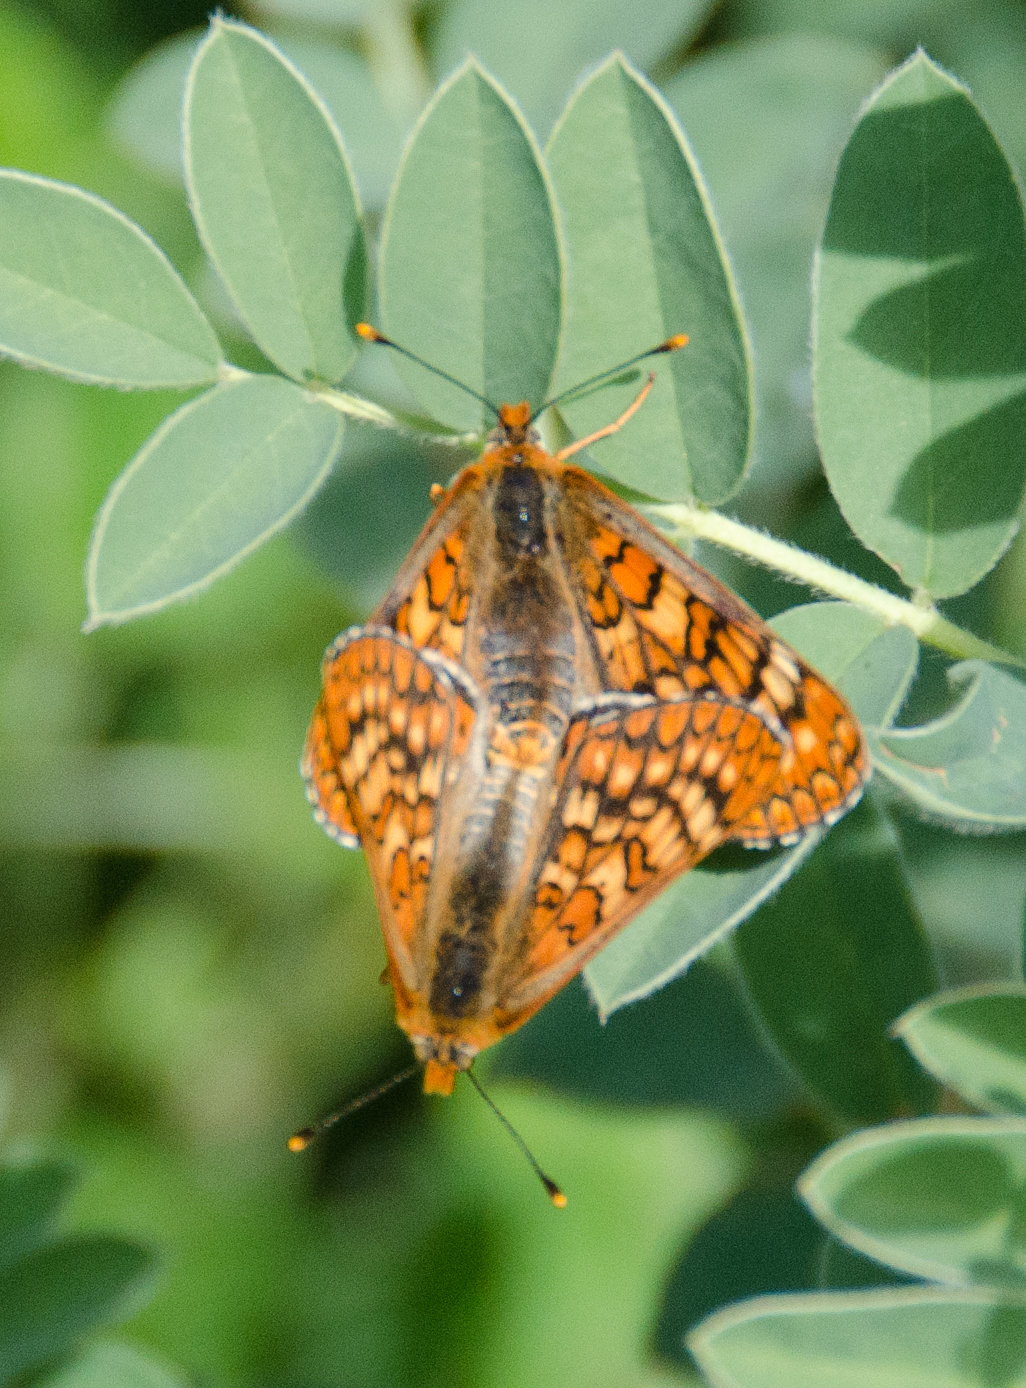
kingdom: Animalia
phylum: Arthropoda
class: Insecta
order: Lepidoptera
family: Nymphalidae
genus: Euphydryas
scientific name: Euphydryas aurinia
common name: Marsh fritillary
